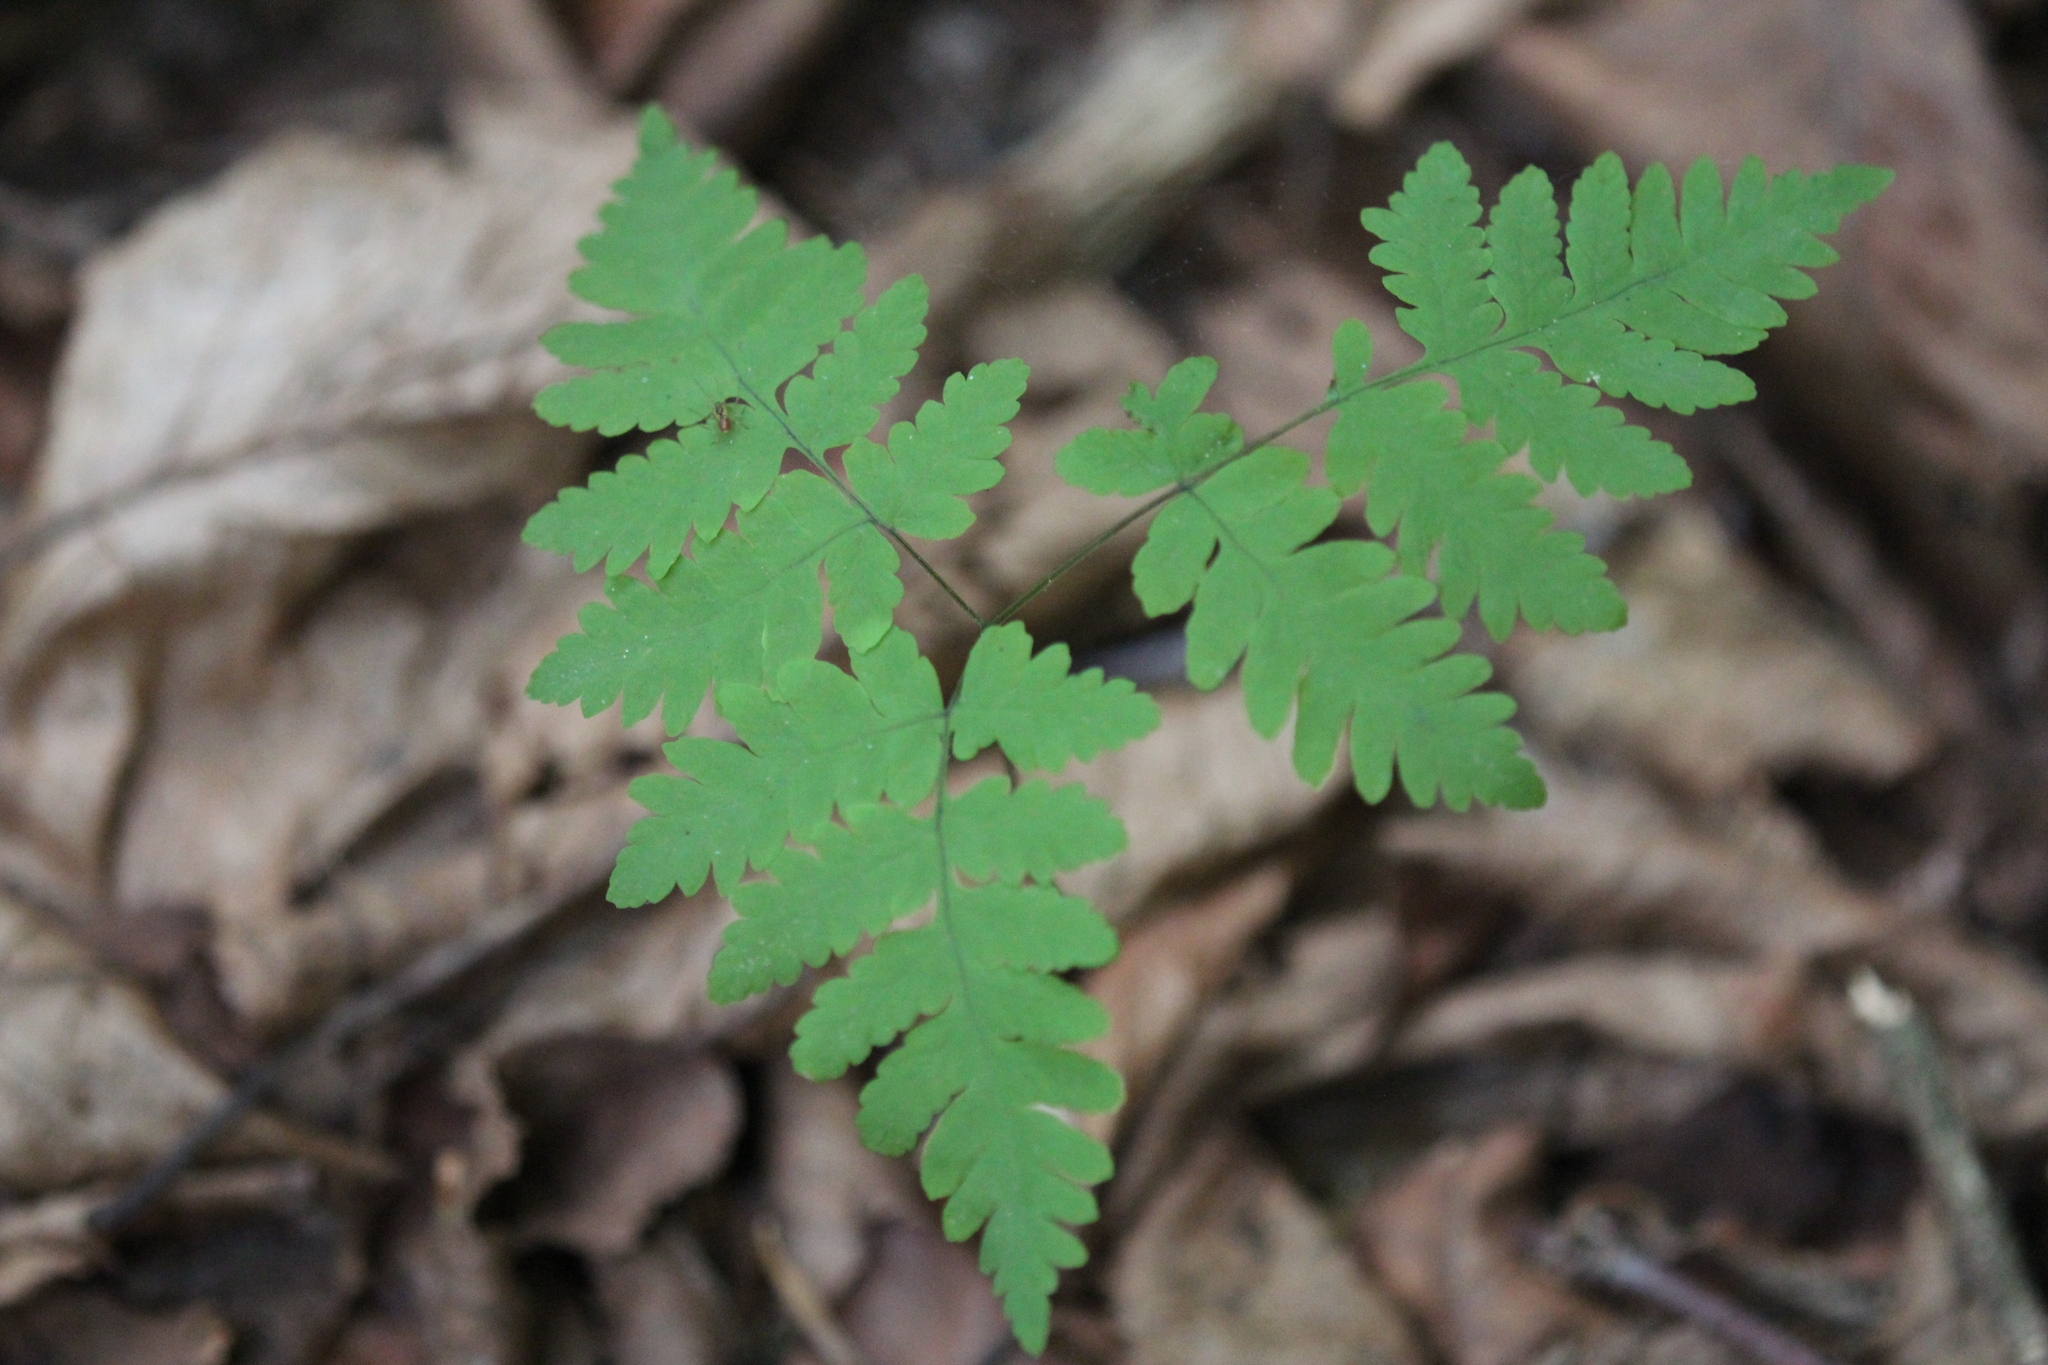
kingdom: Plantae
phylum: Tracheophyta
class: Polypodiopsida
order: Polypodiales
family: Cystopteridaceae
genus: Gymnocarpium
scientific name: Gymnocarpium dryopteris
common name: Oak fern
